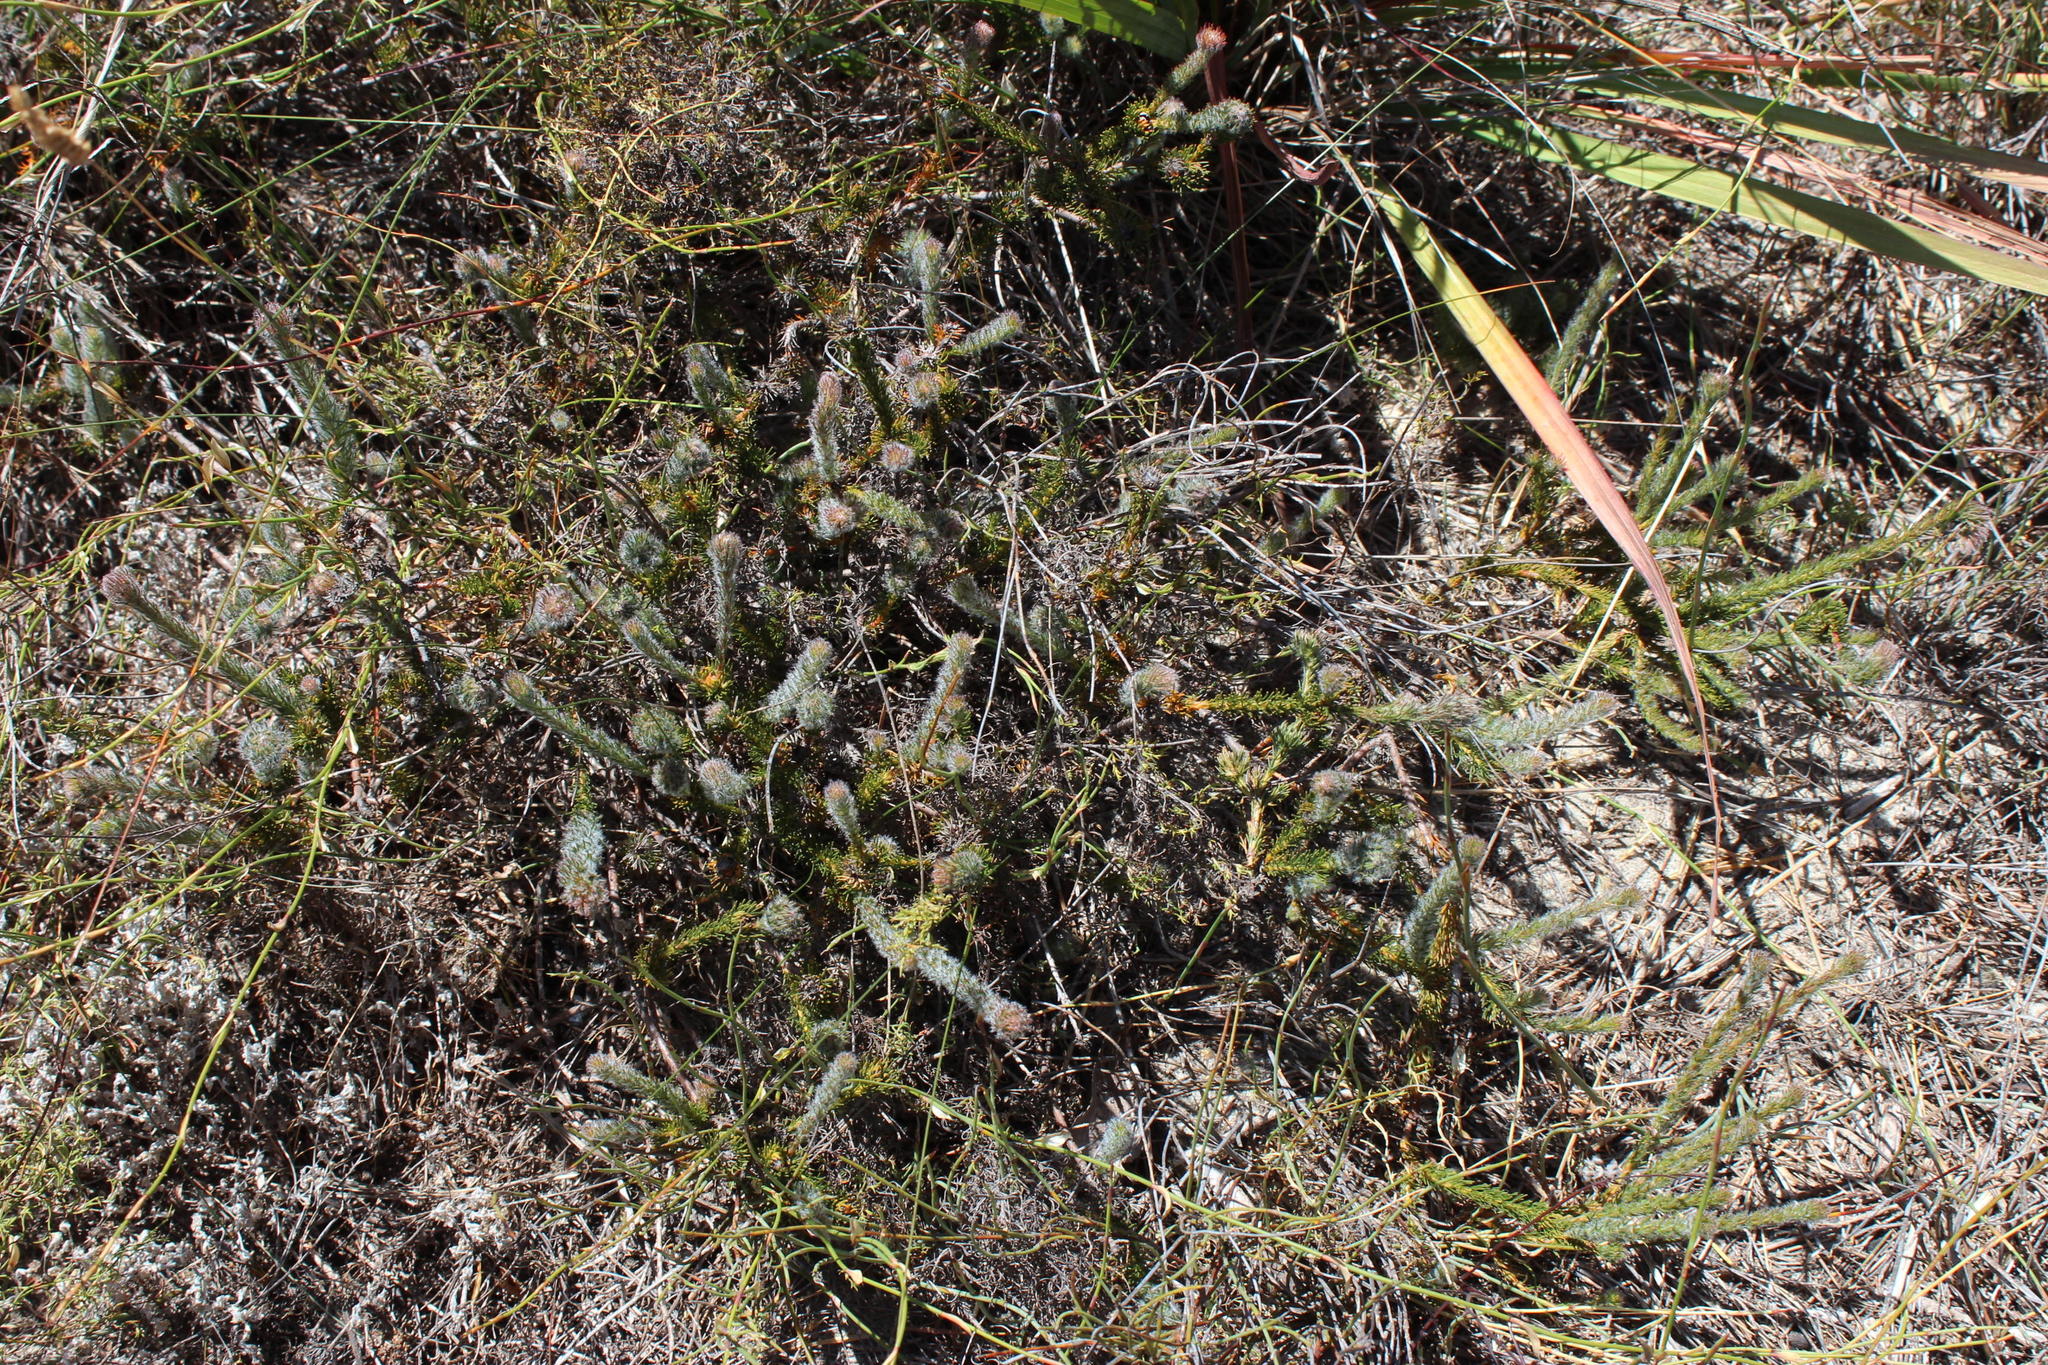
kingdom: Plantae
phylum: Tracheophyta
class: Magnoliopsida
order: Proteales
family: Proteaceae
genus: Serruria
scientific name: Serruria trilopha
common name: Trident spiderhead
